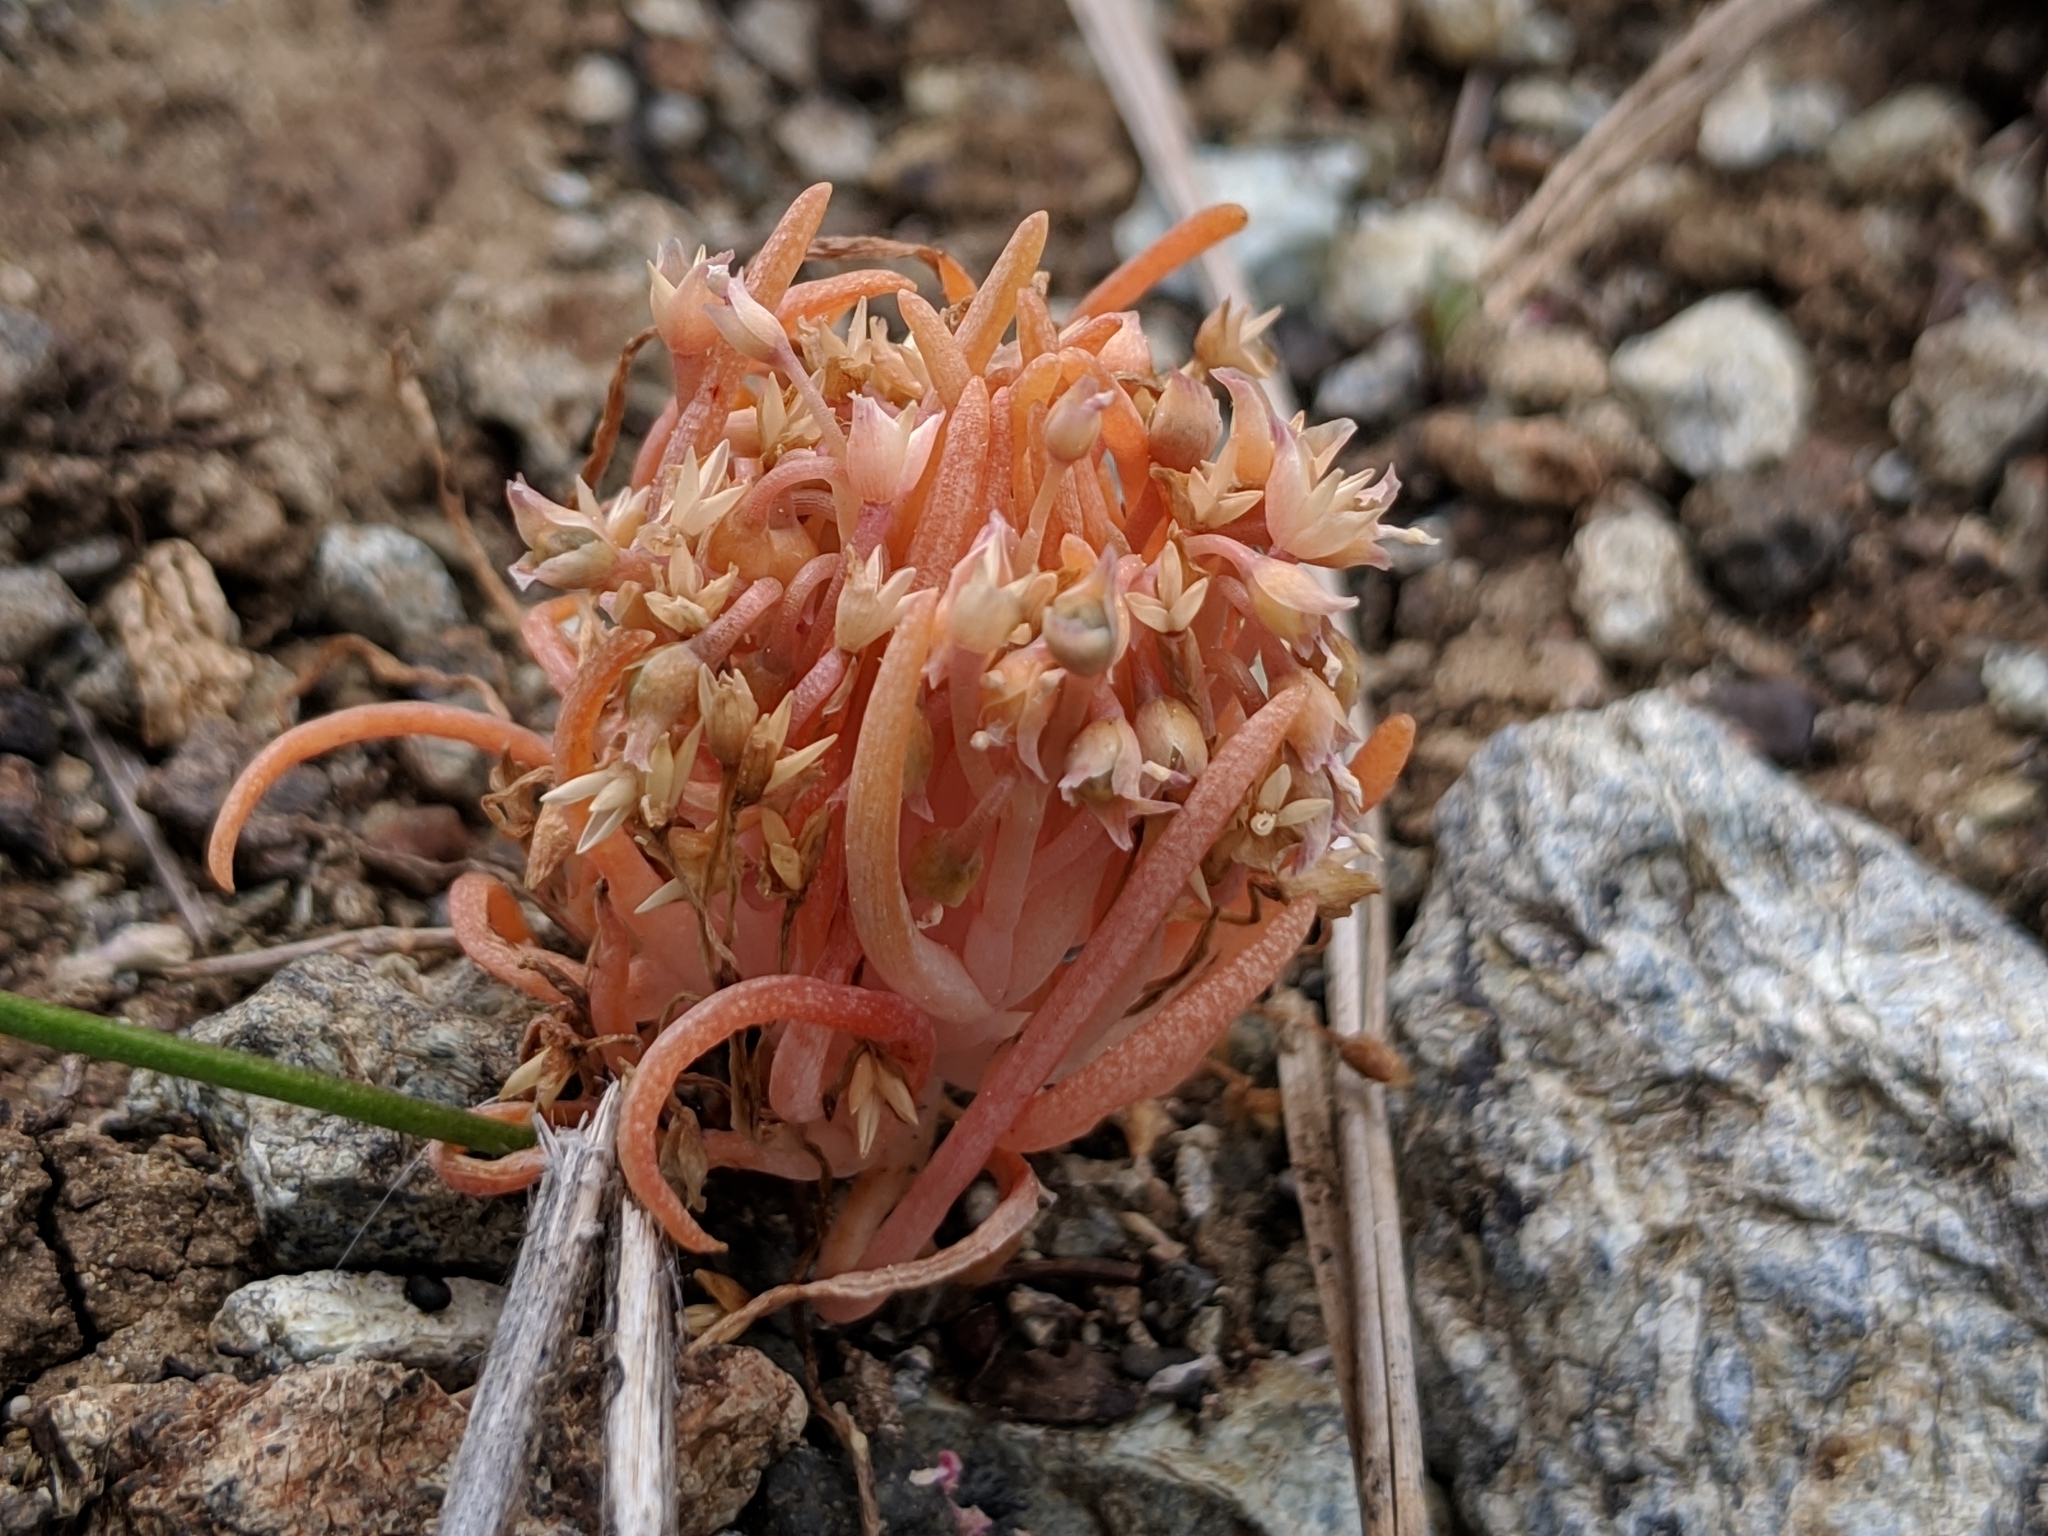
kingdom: Plantae
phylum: Tracheophyta
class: Magnoliopsida
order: Caryophyllales
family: Montiaceae
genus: Claytonia
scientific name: Claytonia exigua
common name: Pale spring beauty
